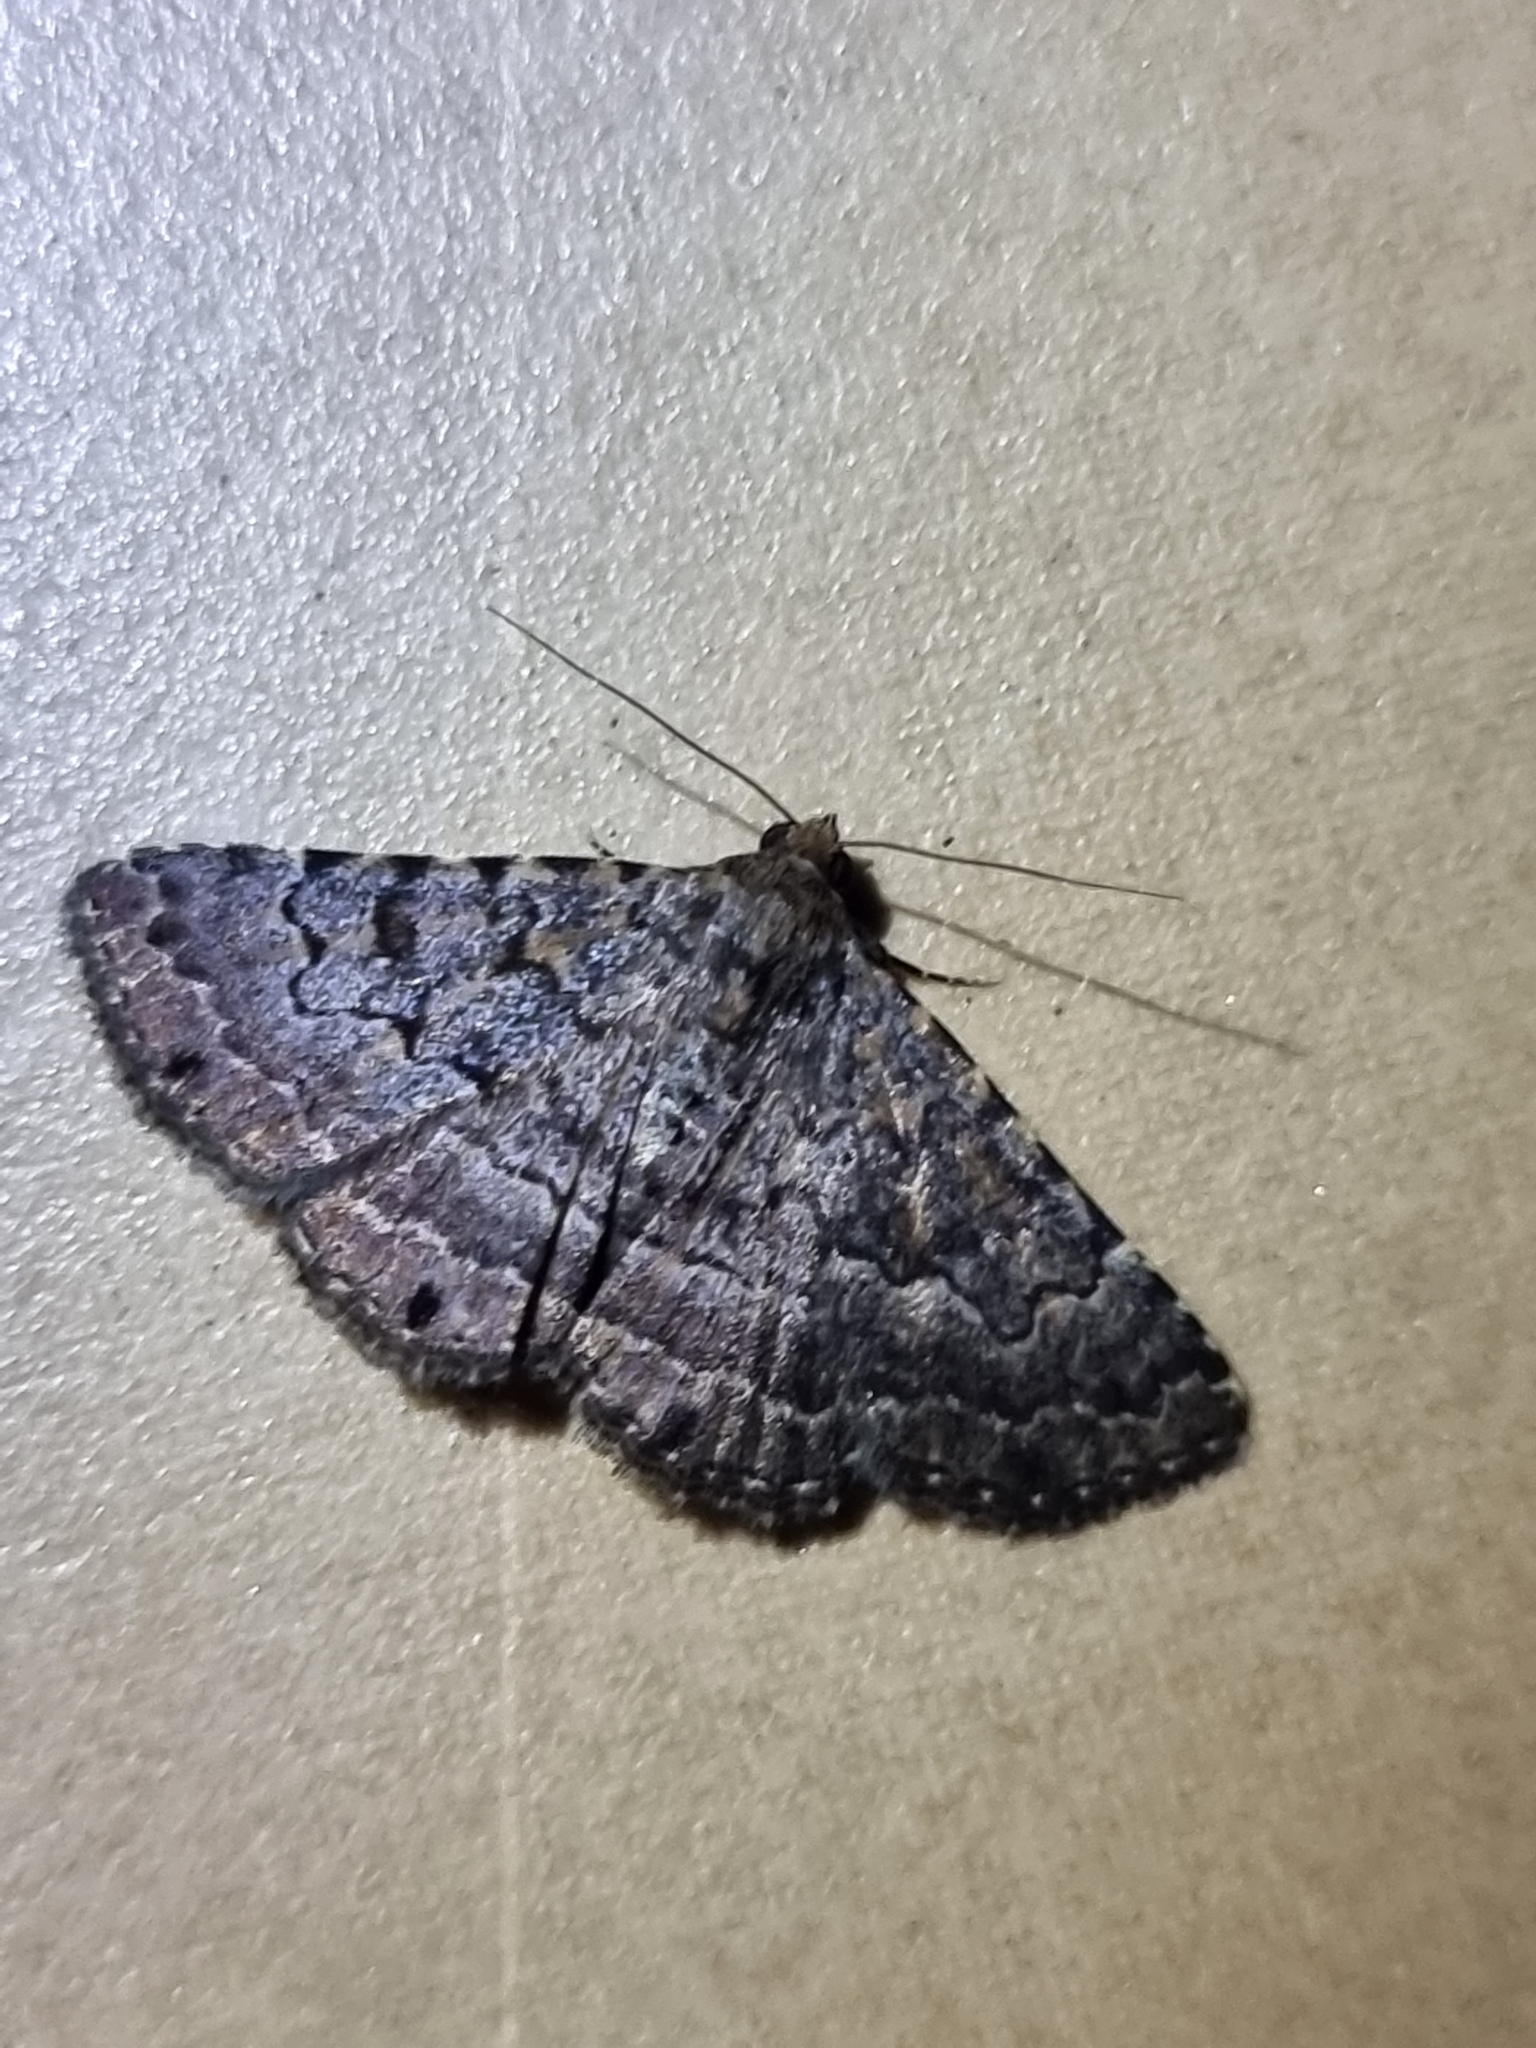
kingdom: Animalia
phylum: Arthropoda
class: Insecta
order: Lepidoptera
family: Erebidae
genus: Diatenes
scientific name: Diatenes aglossoides
